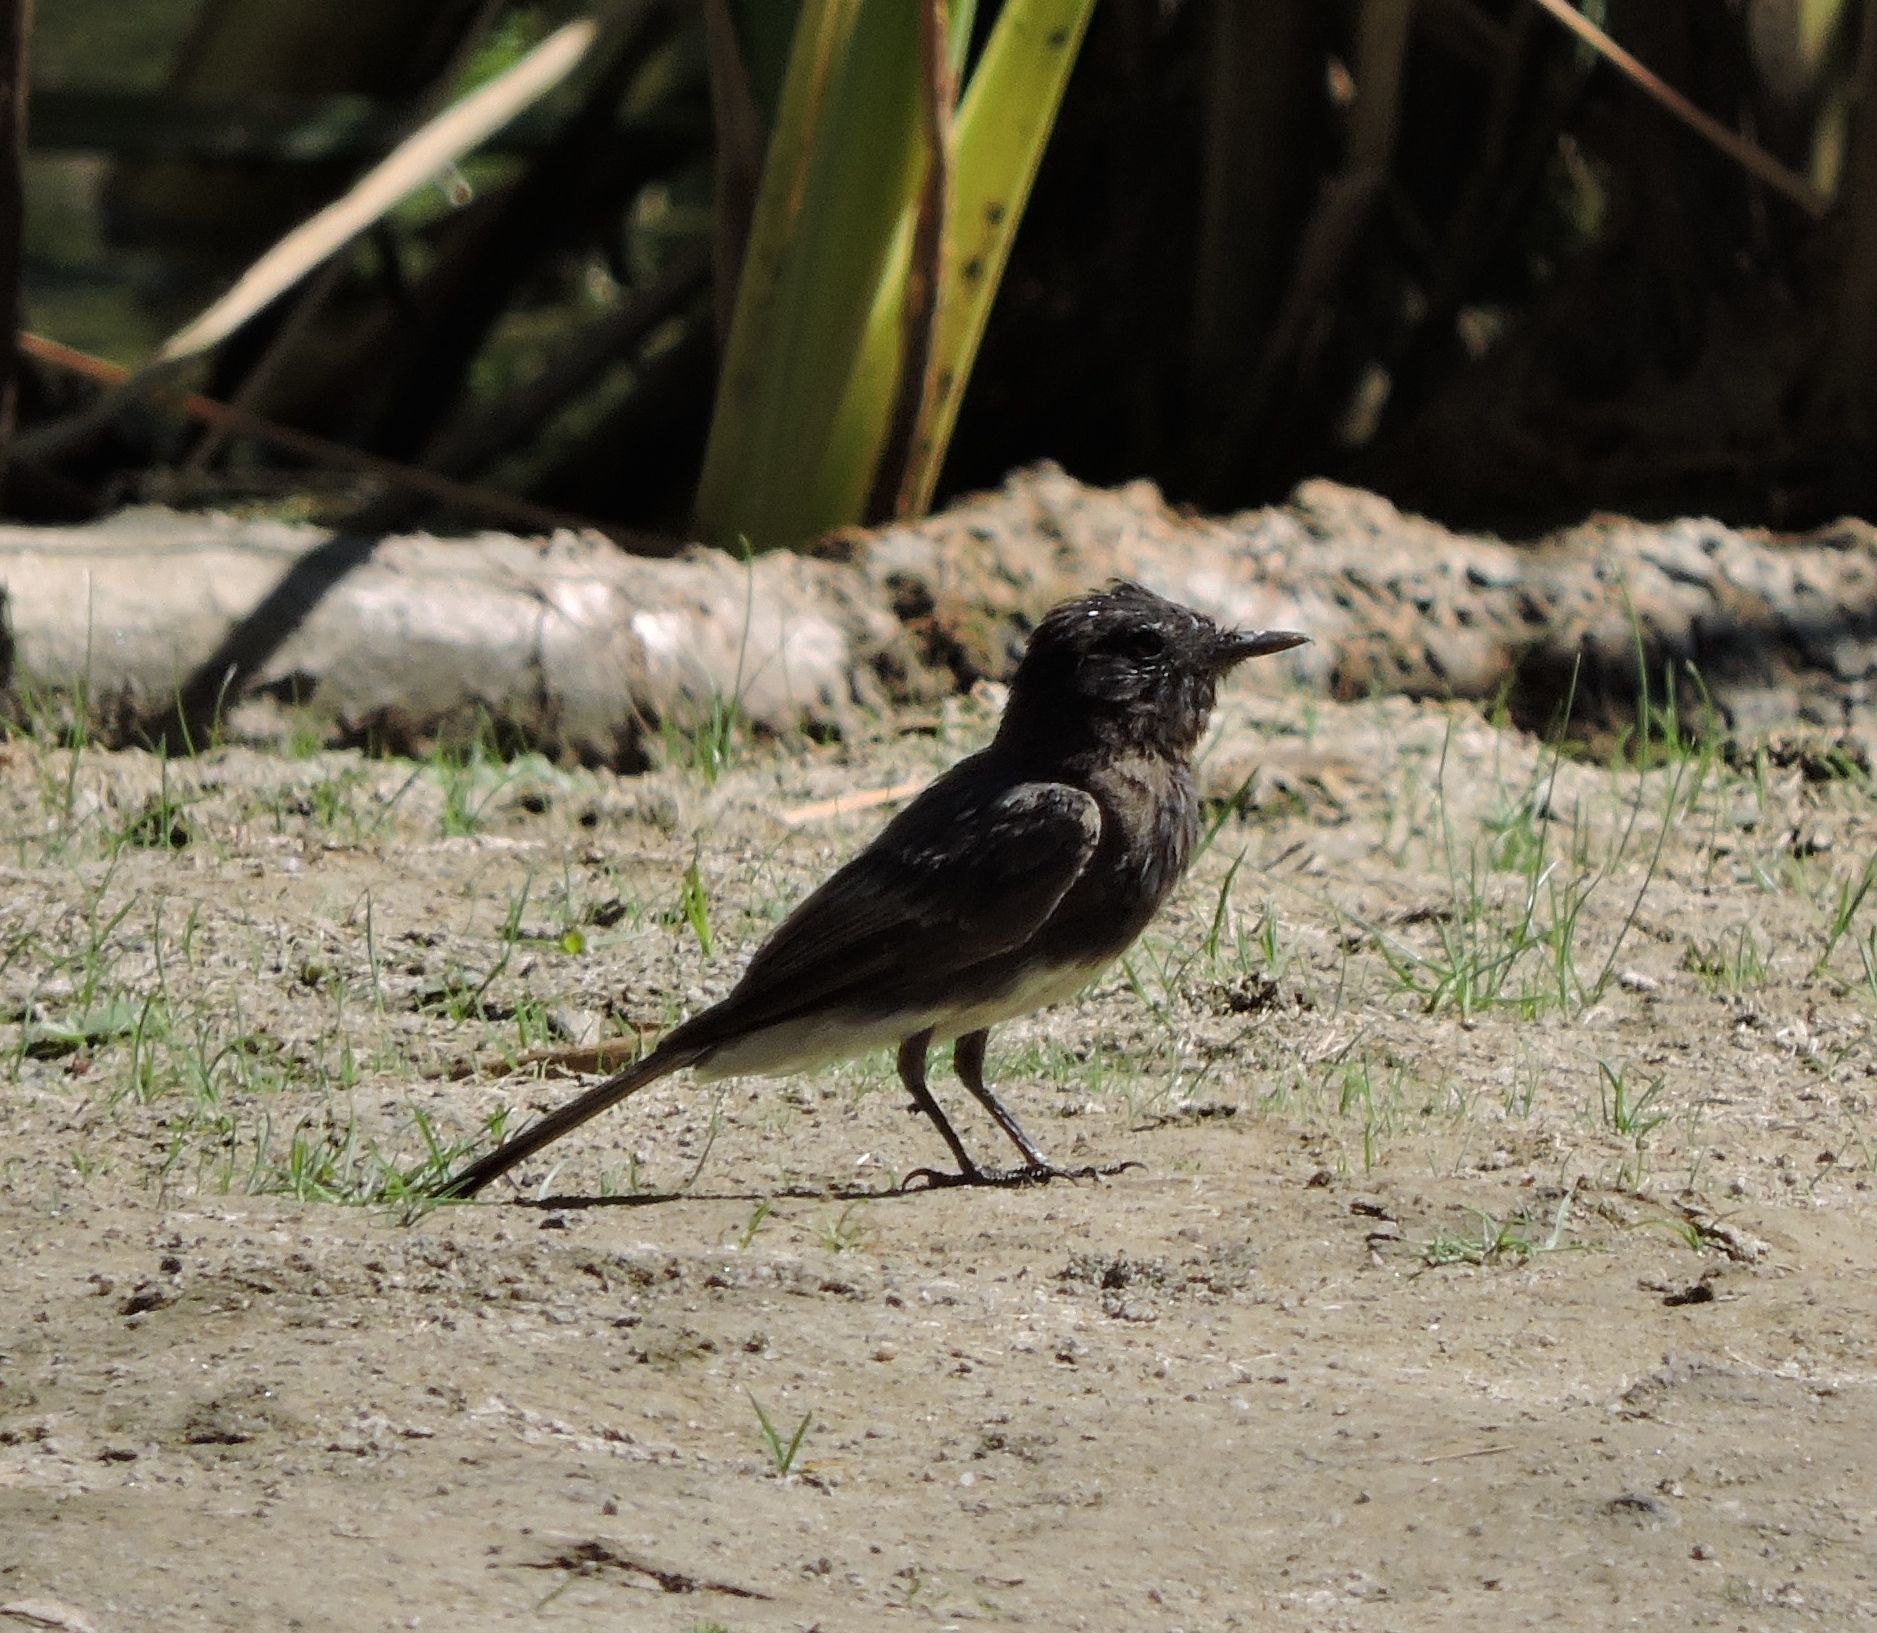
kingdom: Animalia
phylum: Chordata
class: Aves
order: Passeriformes
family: Tyrannidae
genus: Sayornis
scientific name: Sayornis nigricans
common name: Black phoebe
